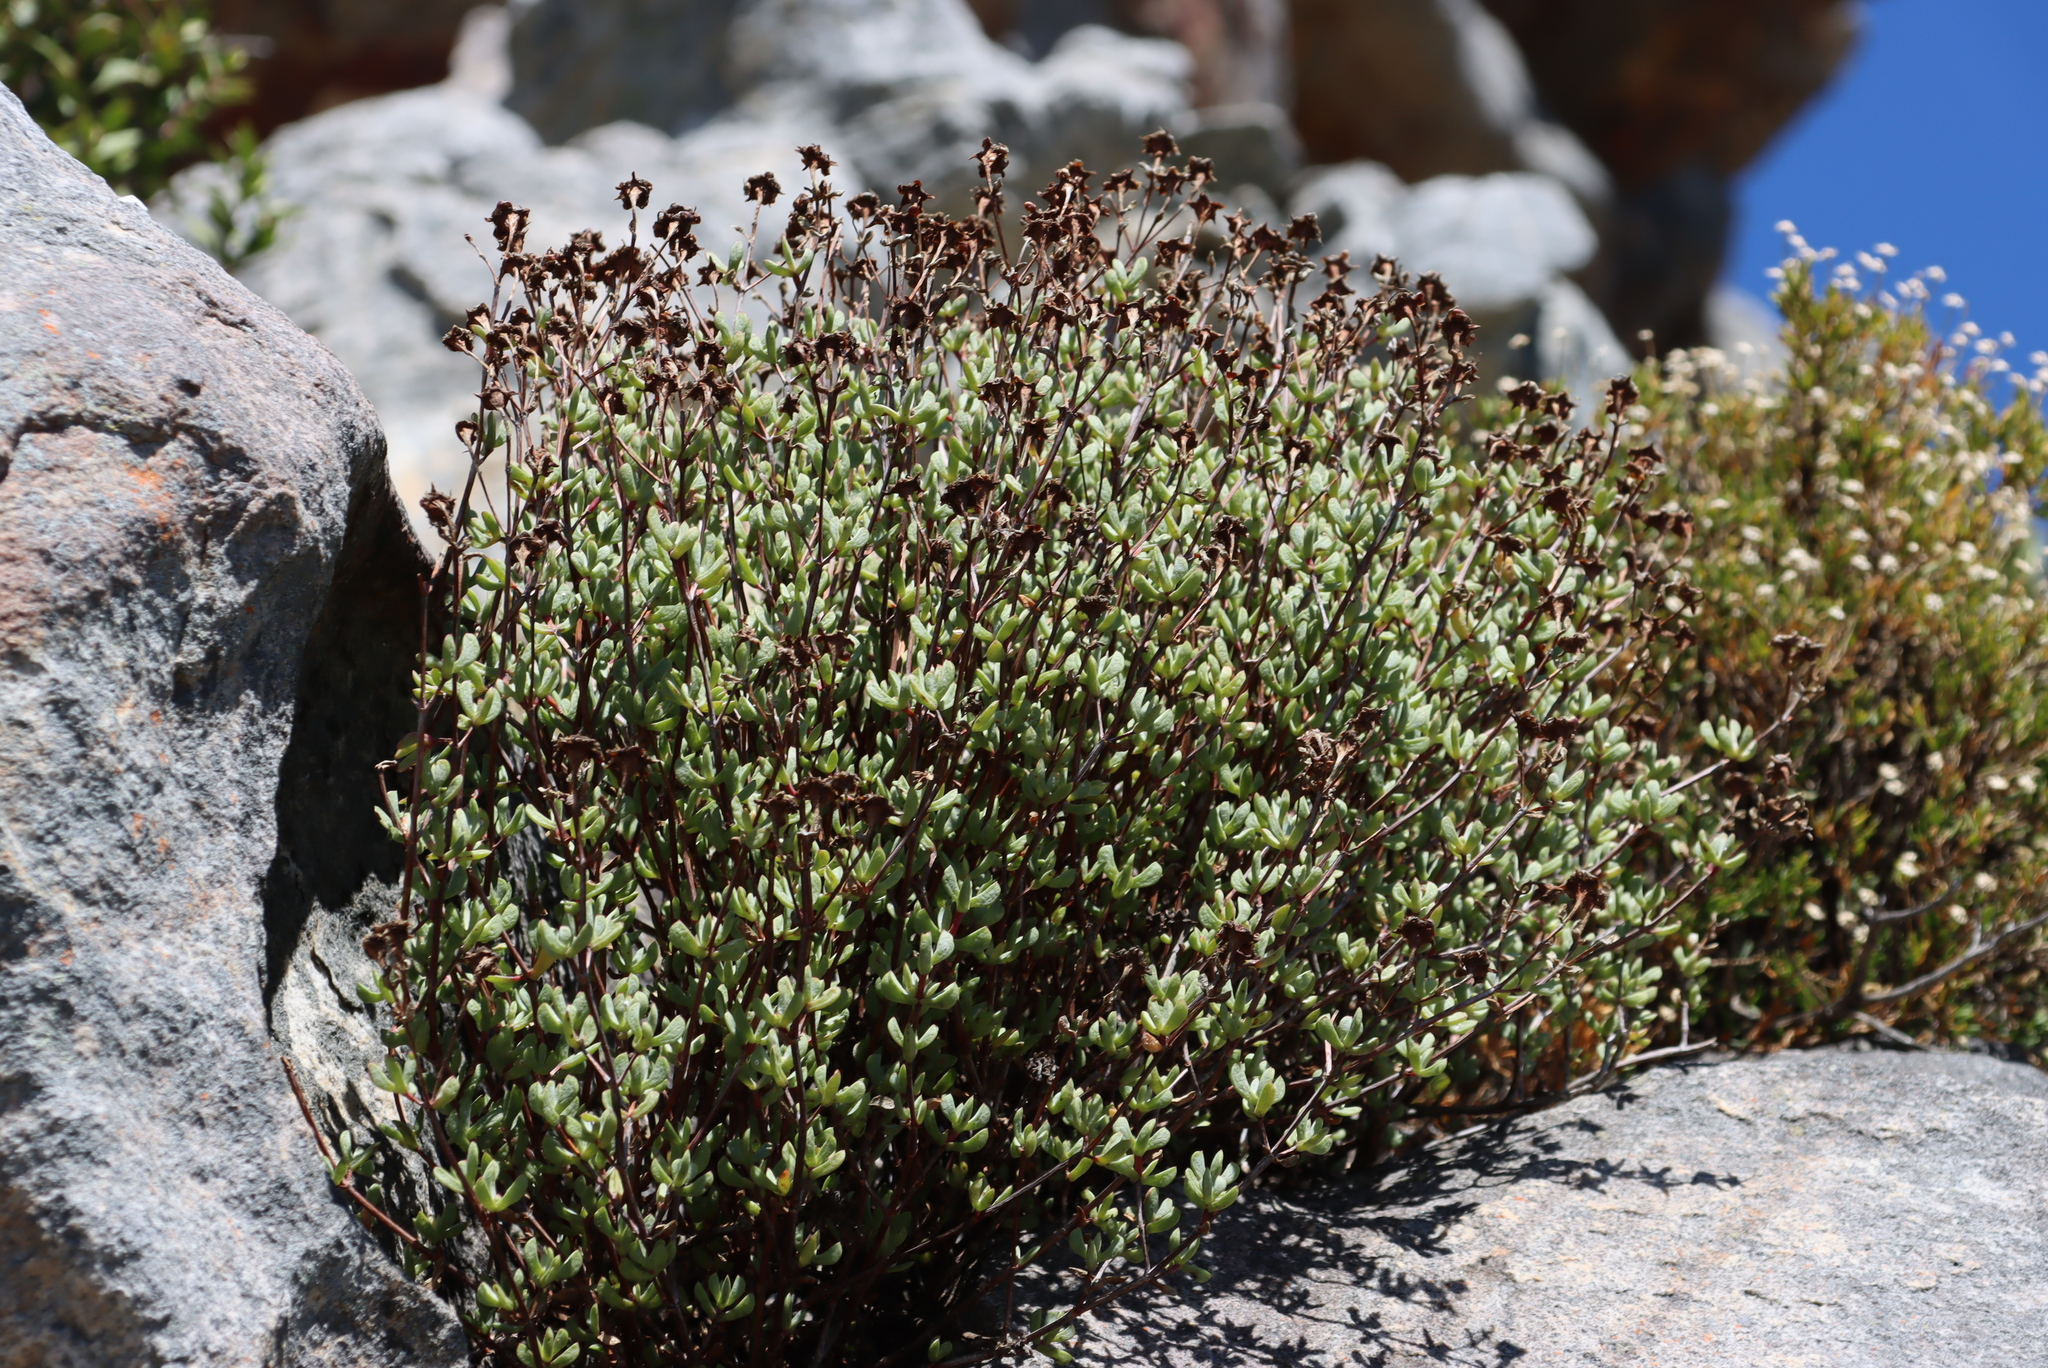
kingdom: Plantae
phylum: Tracheophyta
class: Magnoliopsida
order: Caryophyllales
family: Aizoaceae
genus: Oscularia
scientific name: Oscularia falciformis
